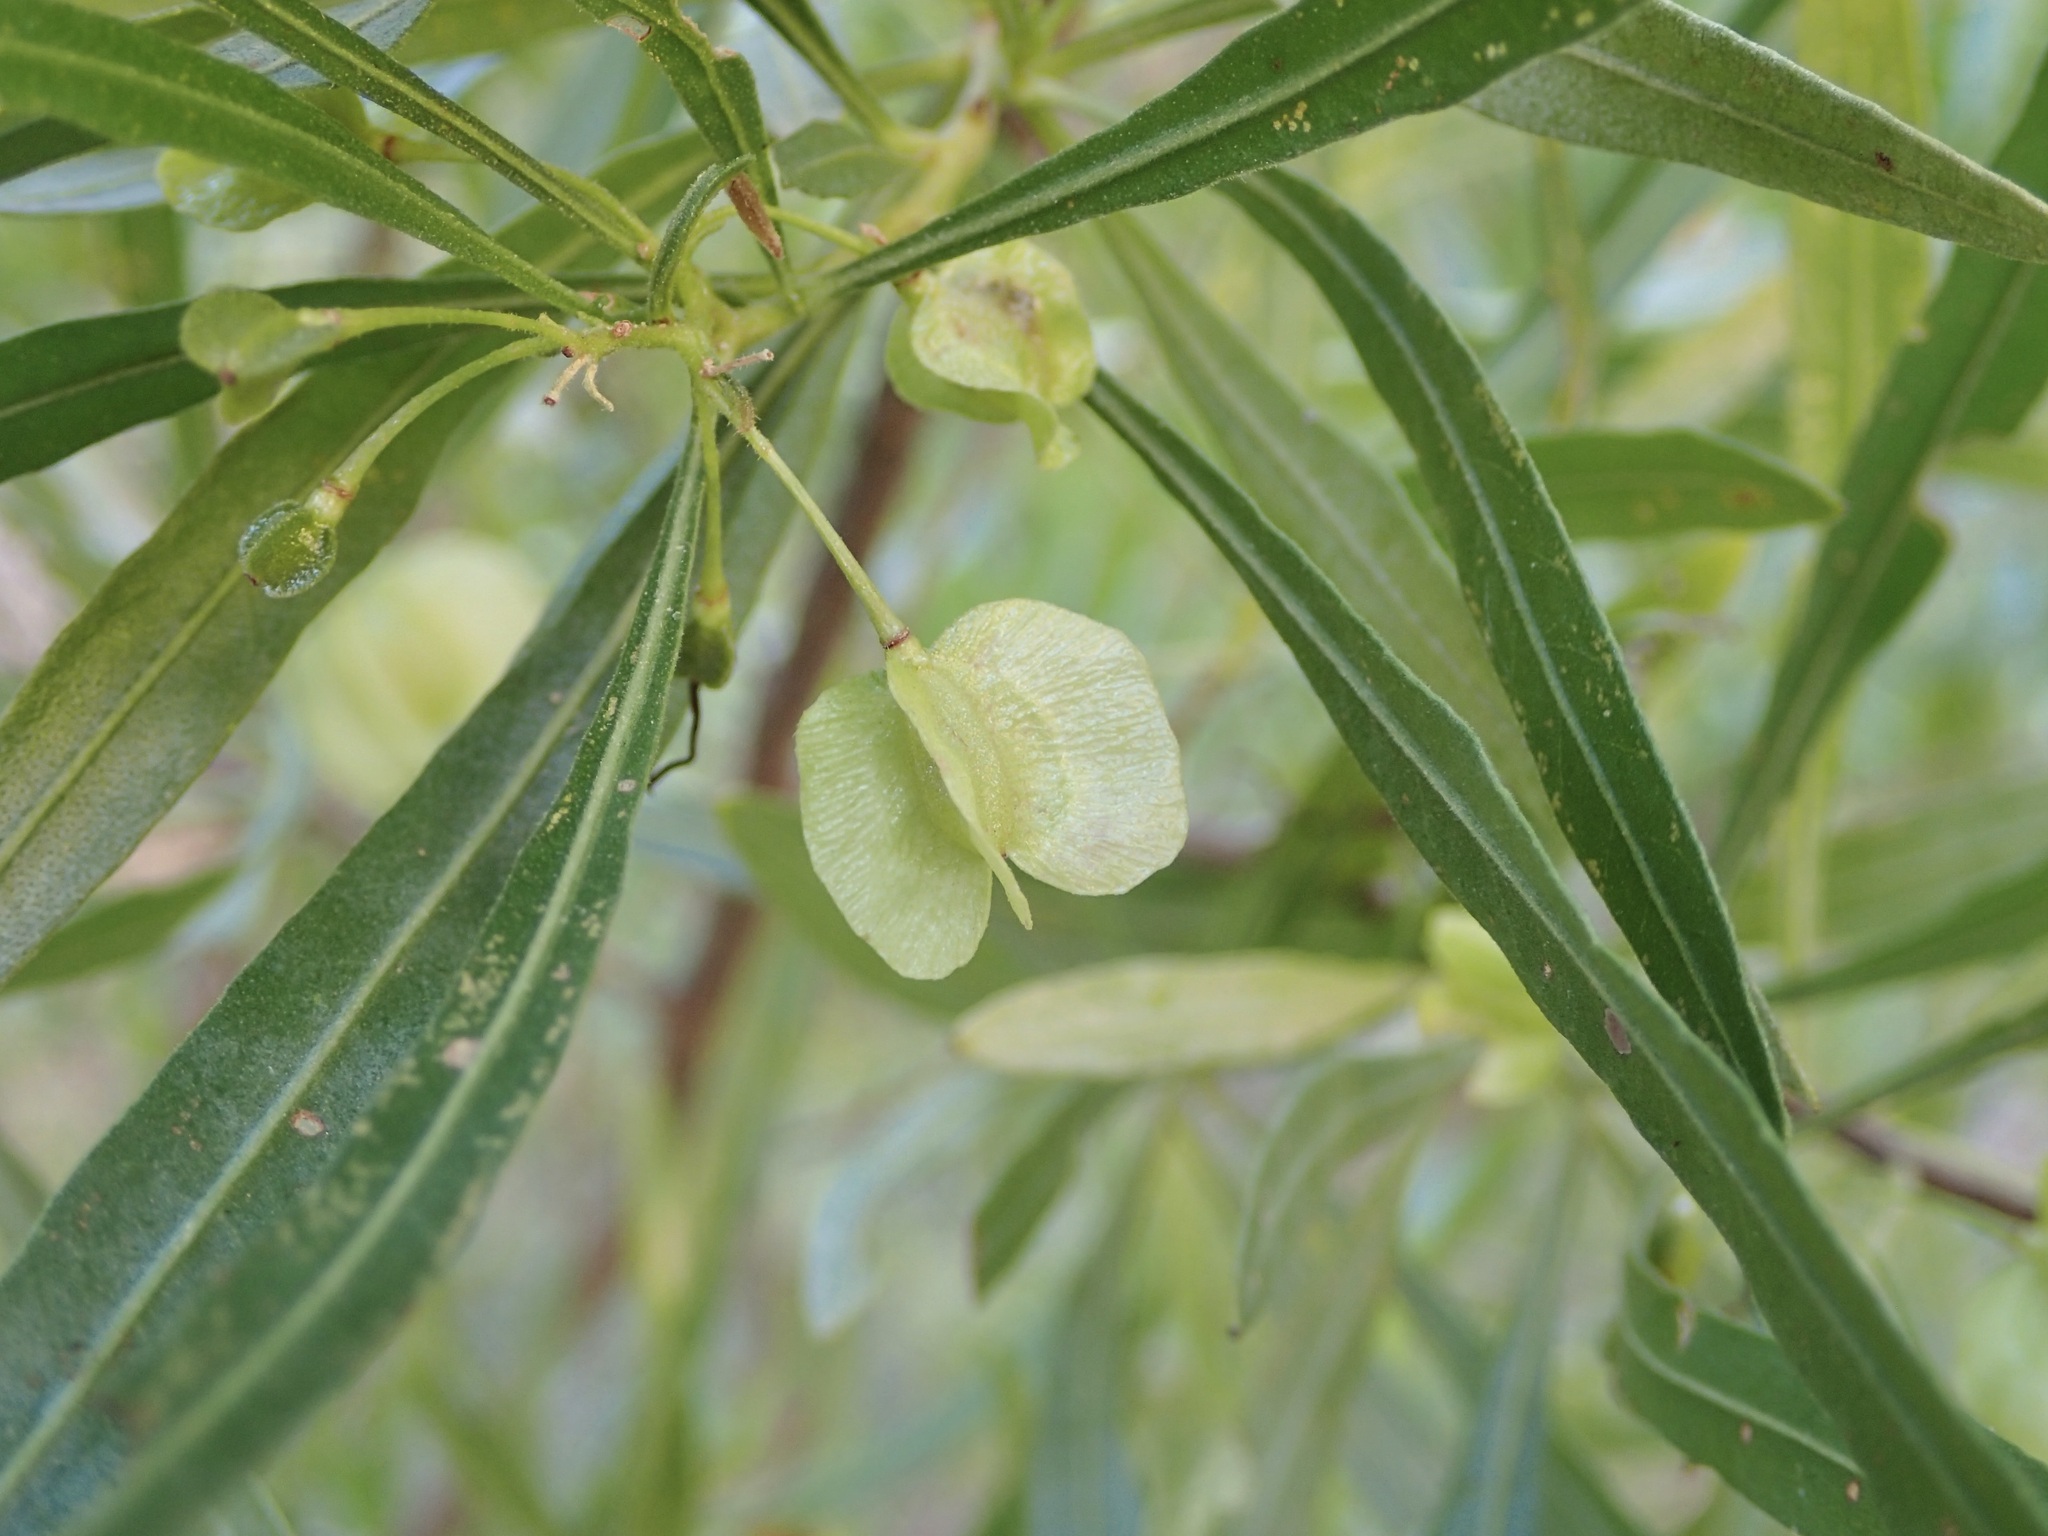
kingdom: Plantae
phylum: Tracheophyta
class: Magnoliopsida
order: Sapindales
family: Sapindaceae
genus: Dodonaea
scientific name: Dodonaea viscosa
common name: Hopbush
